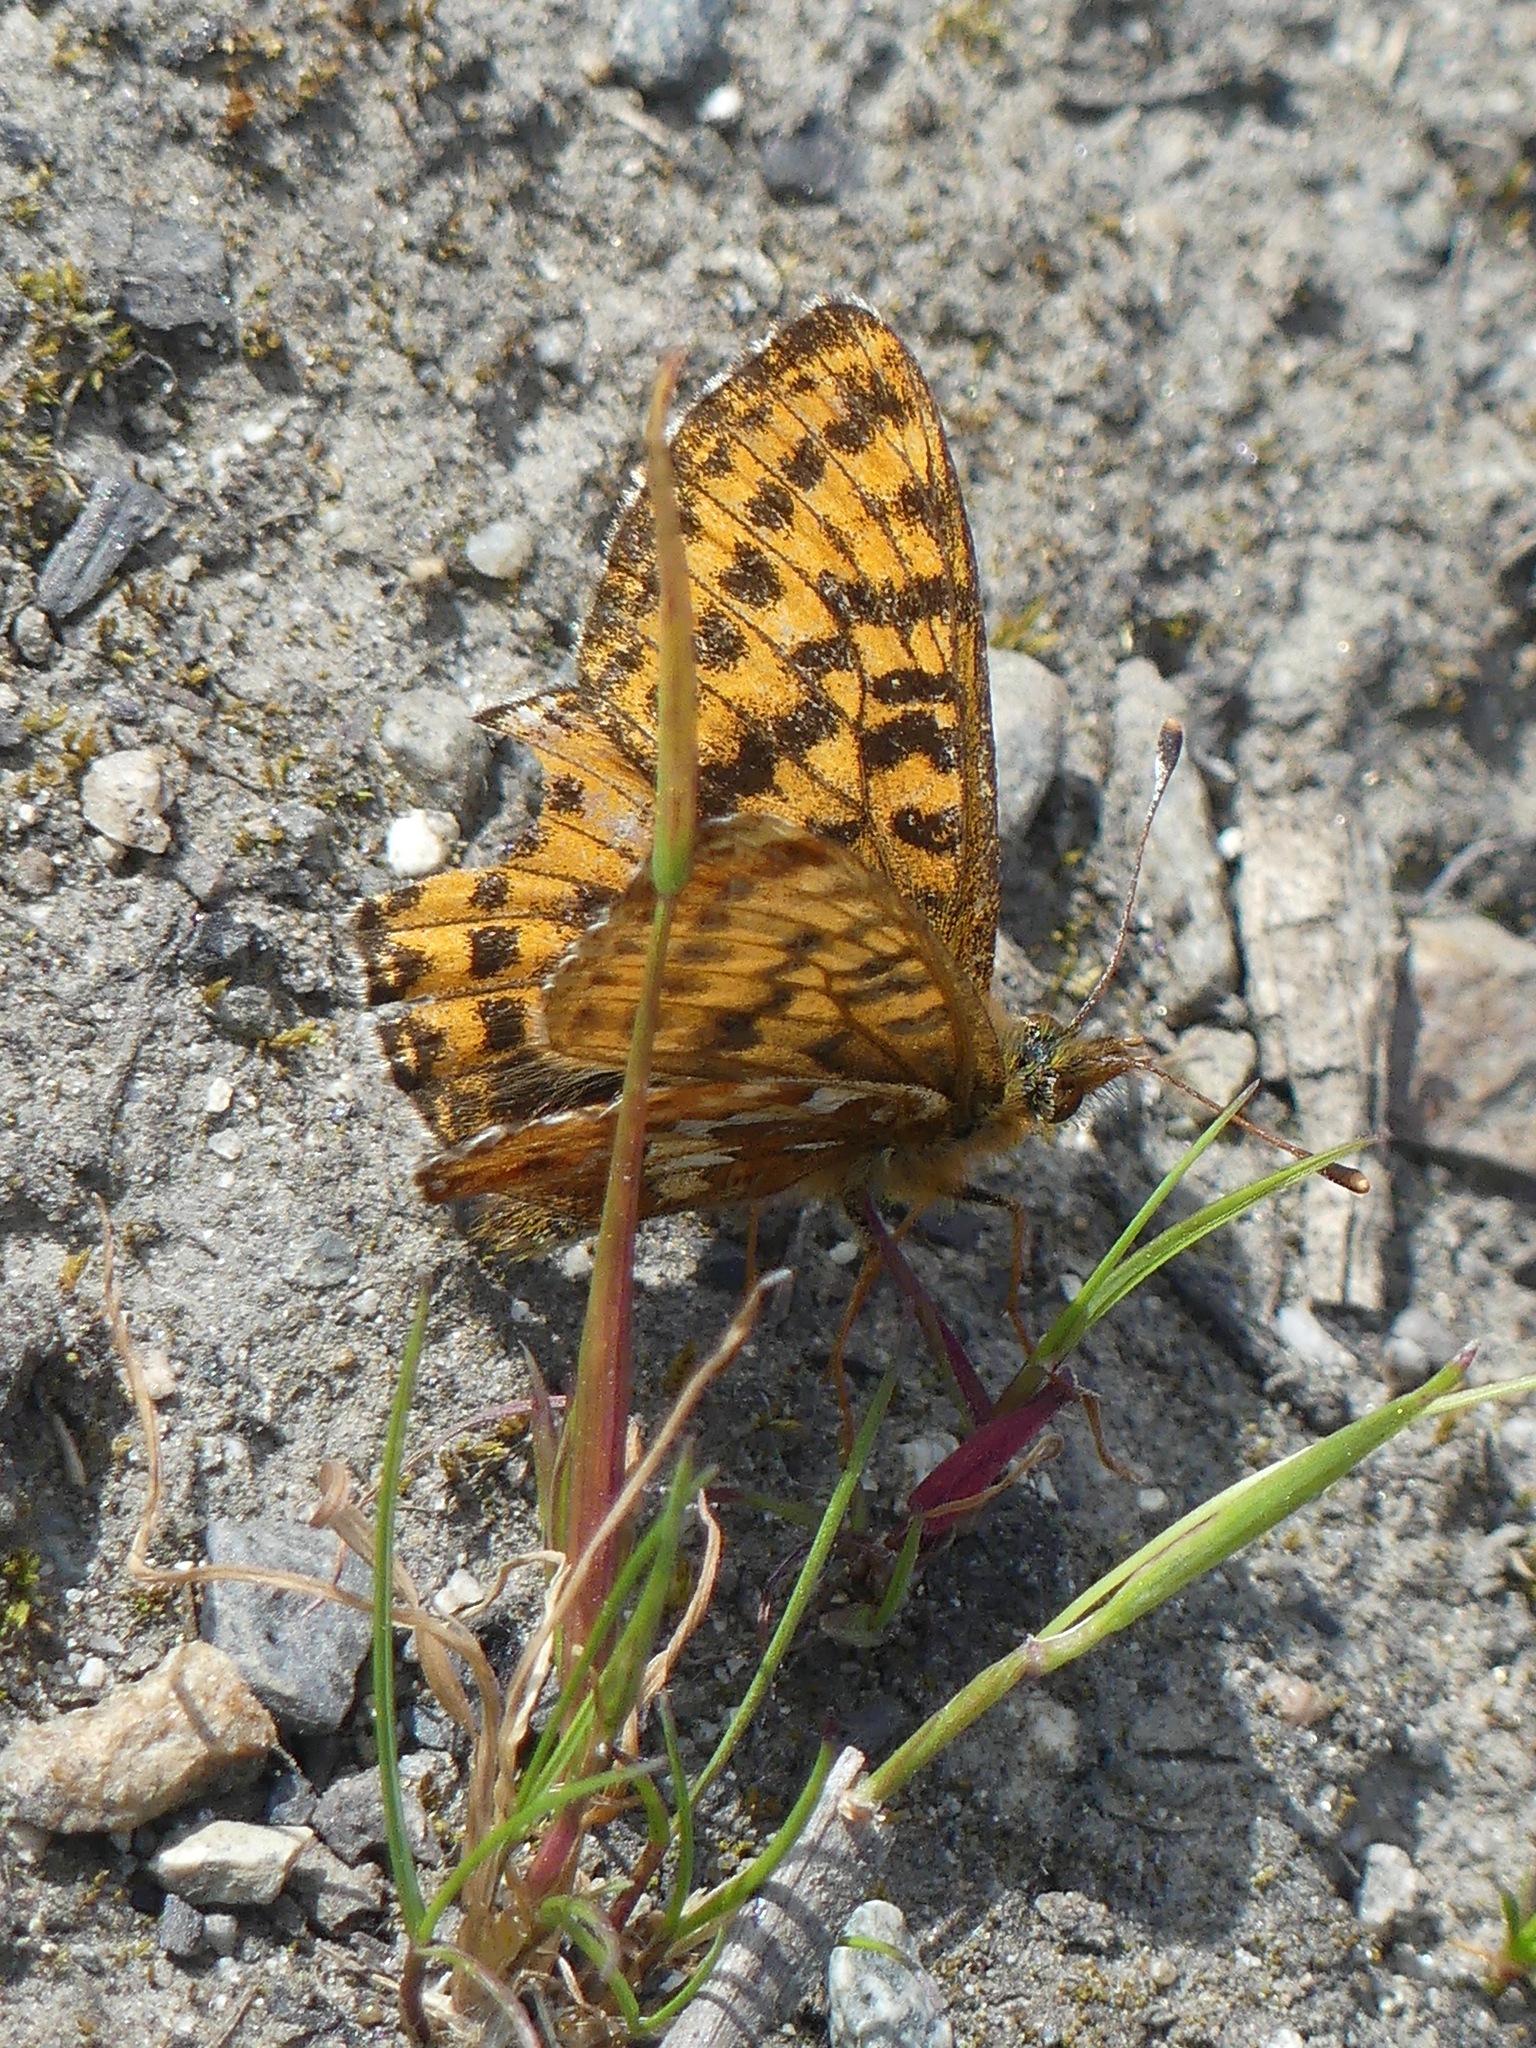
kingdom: Animalia
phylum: Arthropoda
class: Insecta
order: Lepidoptera
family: Nymphalidae
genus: Boloria
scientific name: Boloria chariclea
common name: Arctic fritillary
